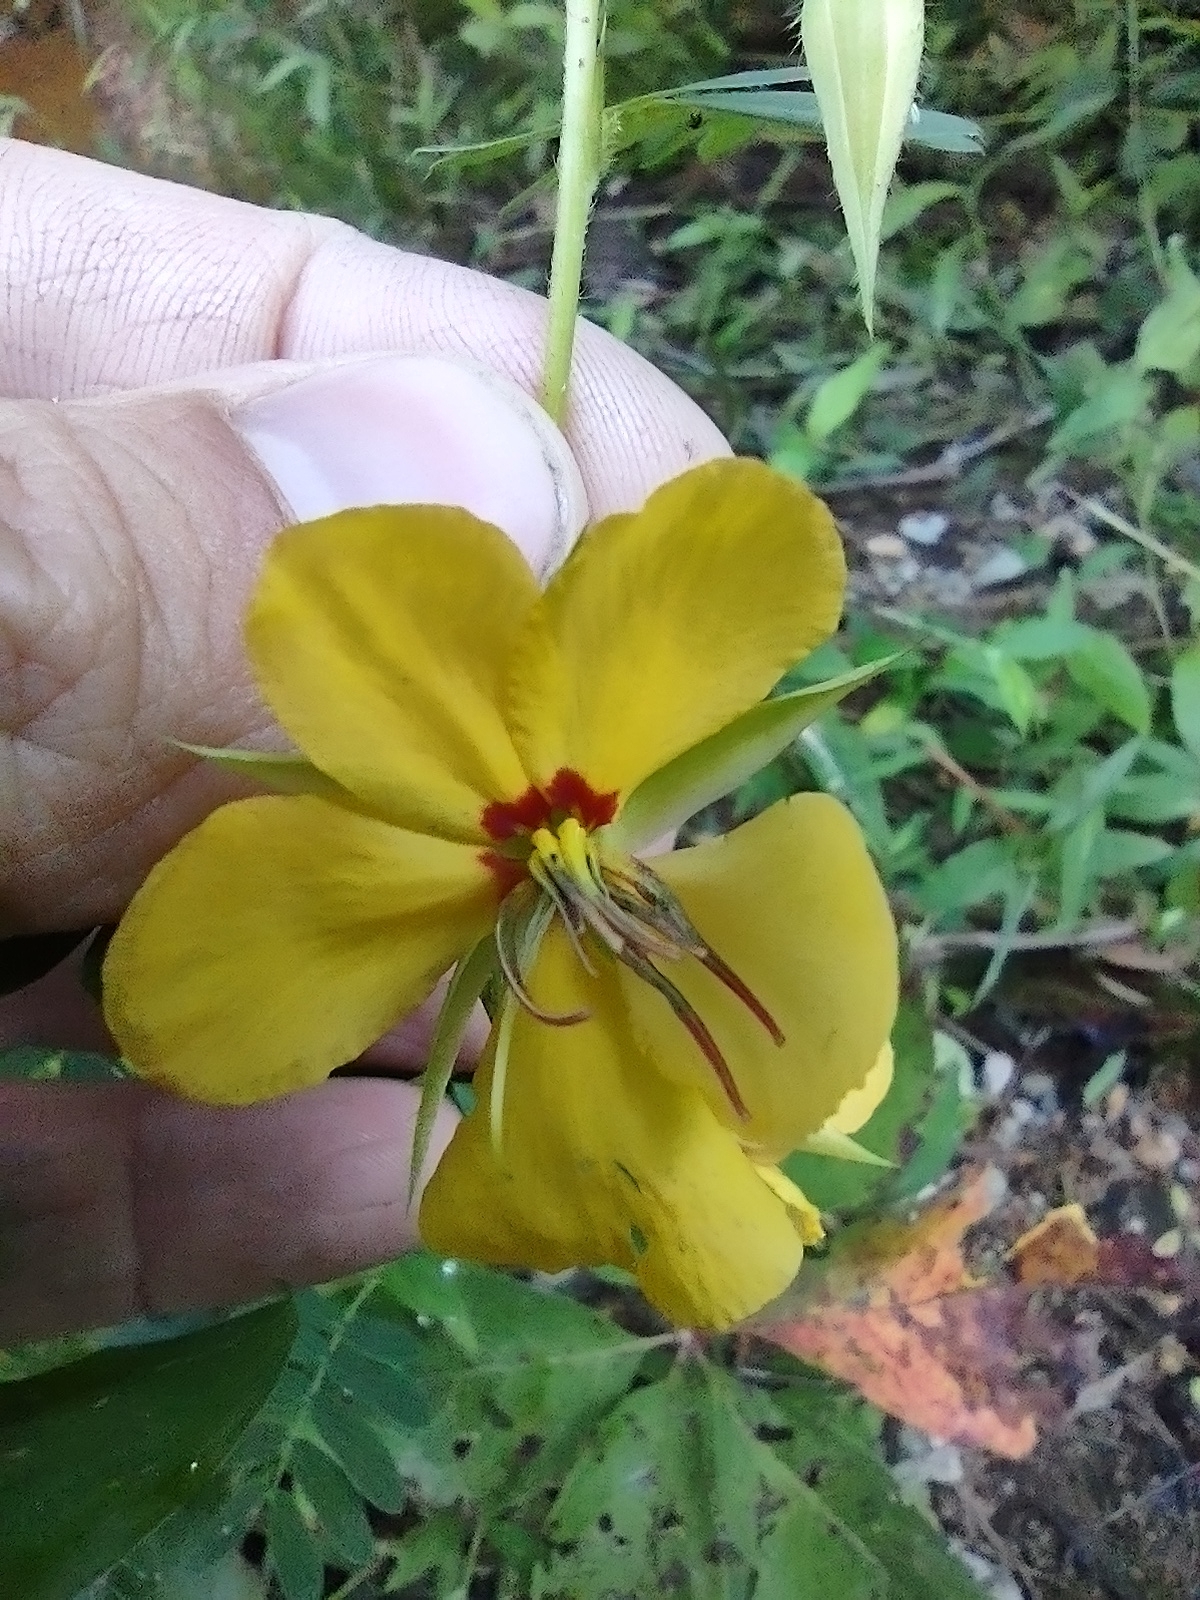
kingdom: Plantae
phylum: Tracheophyta
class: Magnoliopsida
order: Fabales
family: Fabaceae
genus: Chamaecrista
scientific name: Chamaecrista fasciculata
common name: Golden cassia
